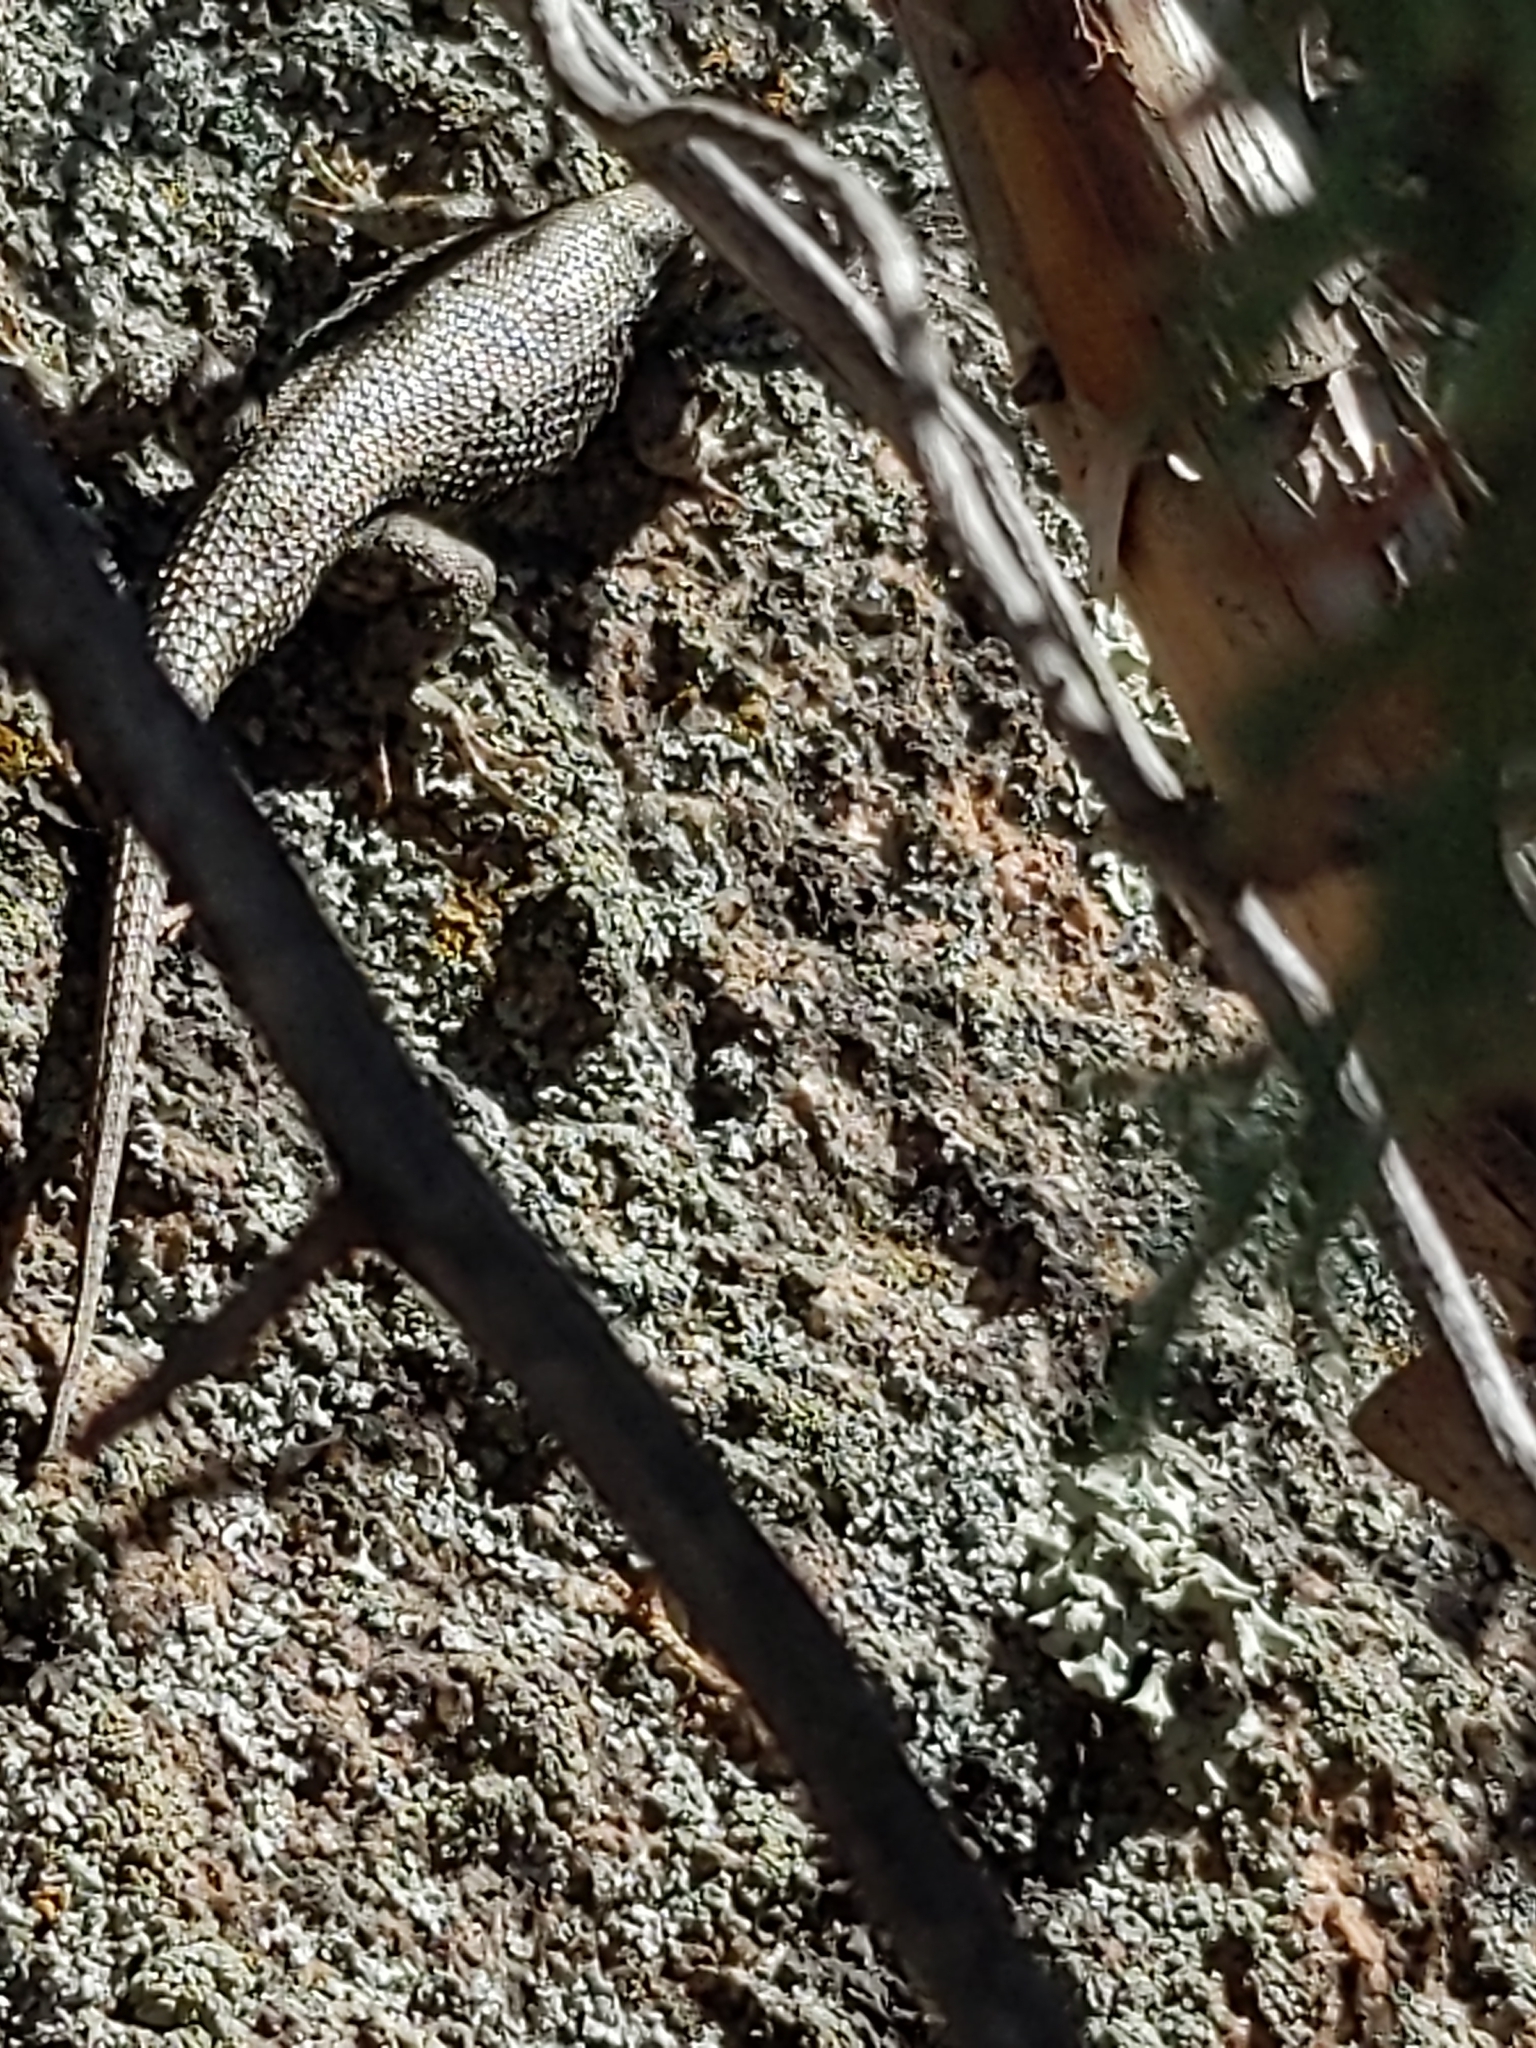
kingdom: Animalia
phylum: Chordata
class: Squamata
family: Phrynosomatidae
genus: Sceloporus
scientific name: Sceloporus consobrinus
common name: Southern prairie lizard
